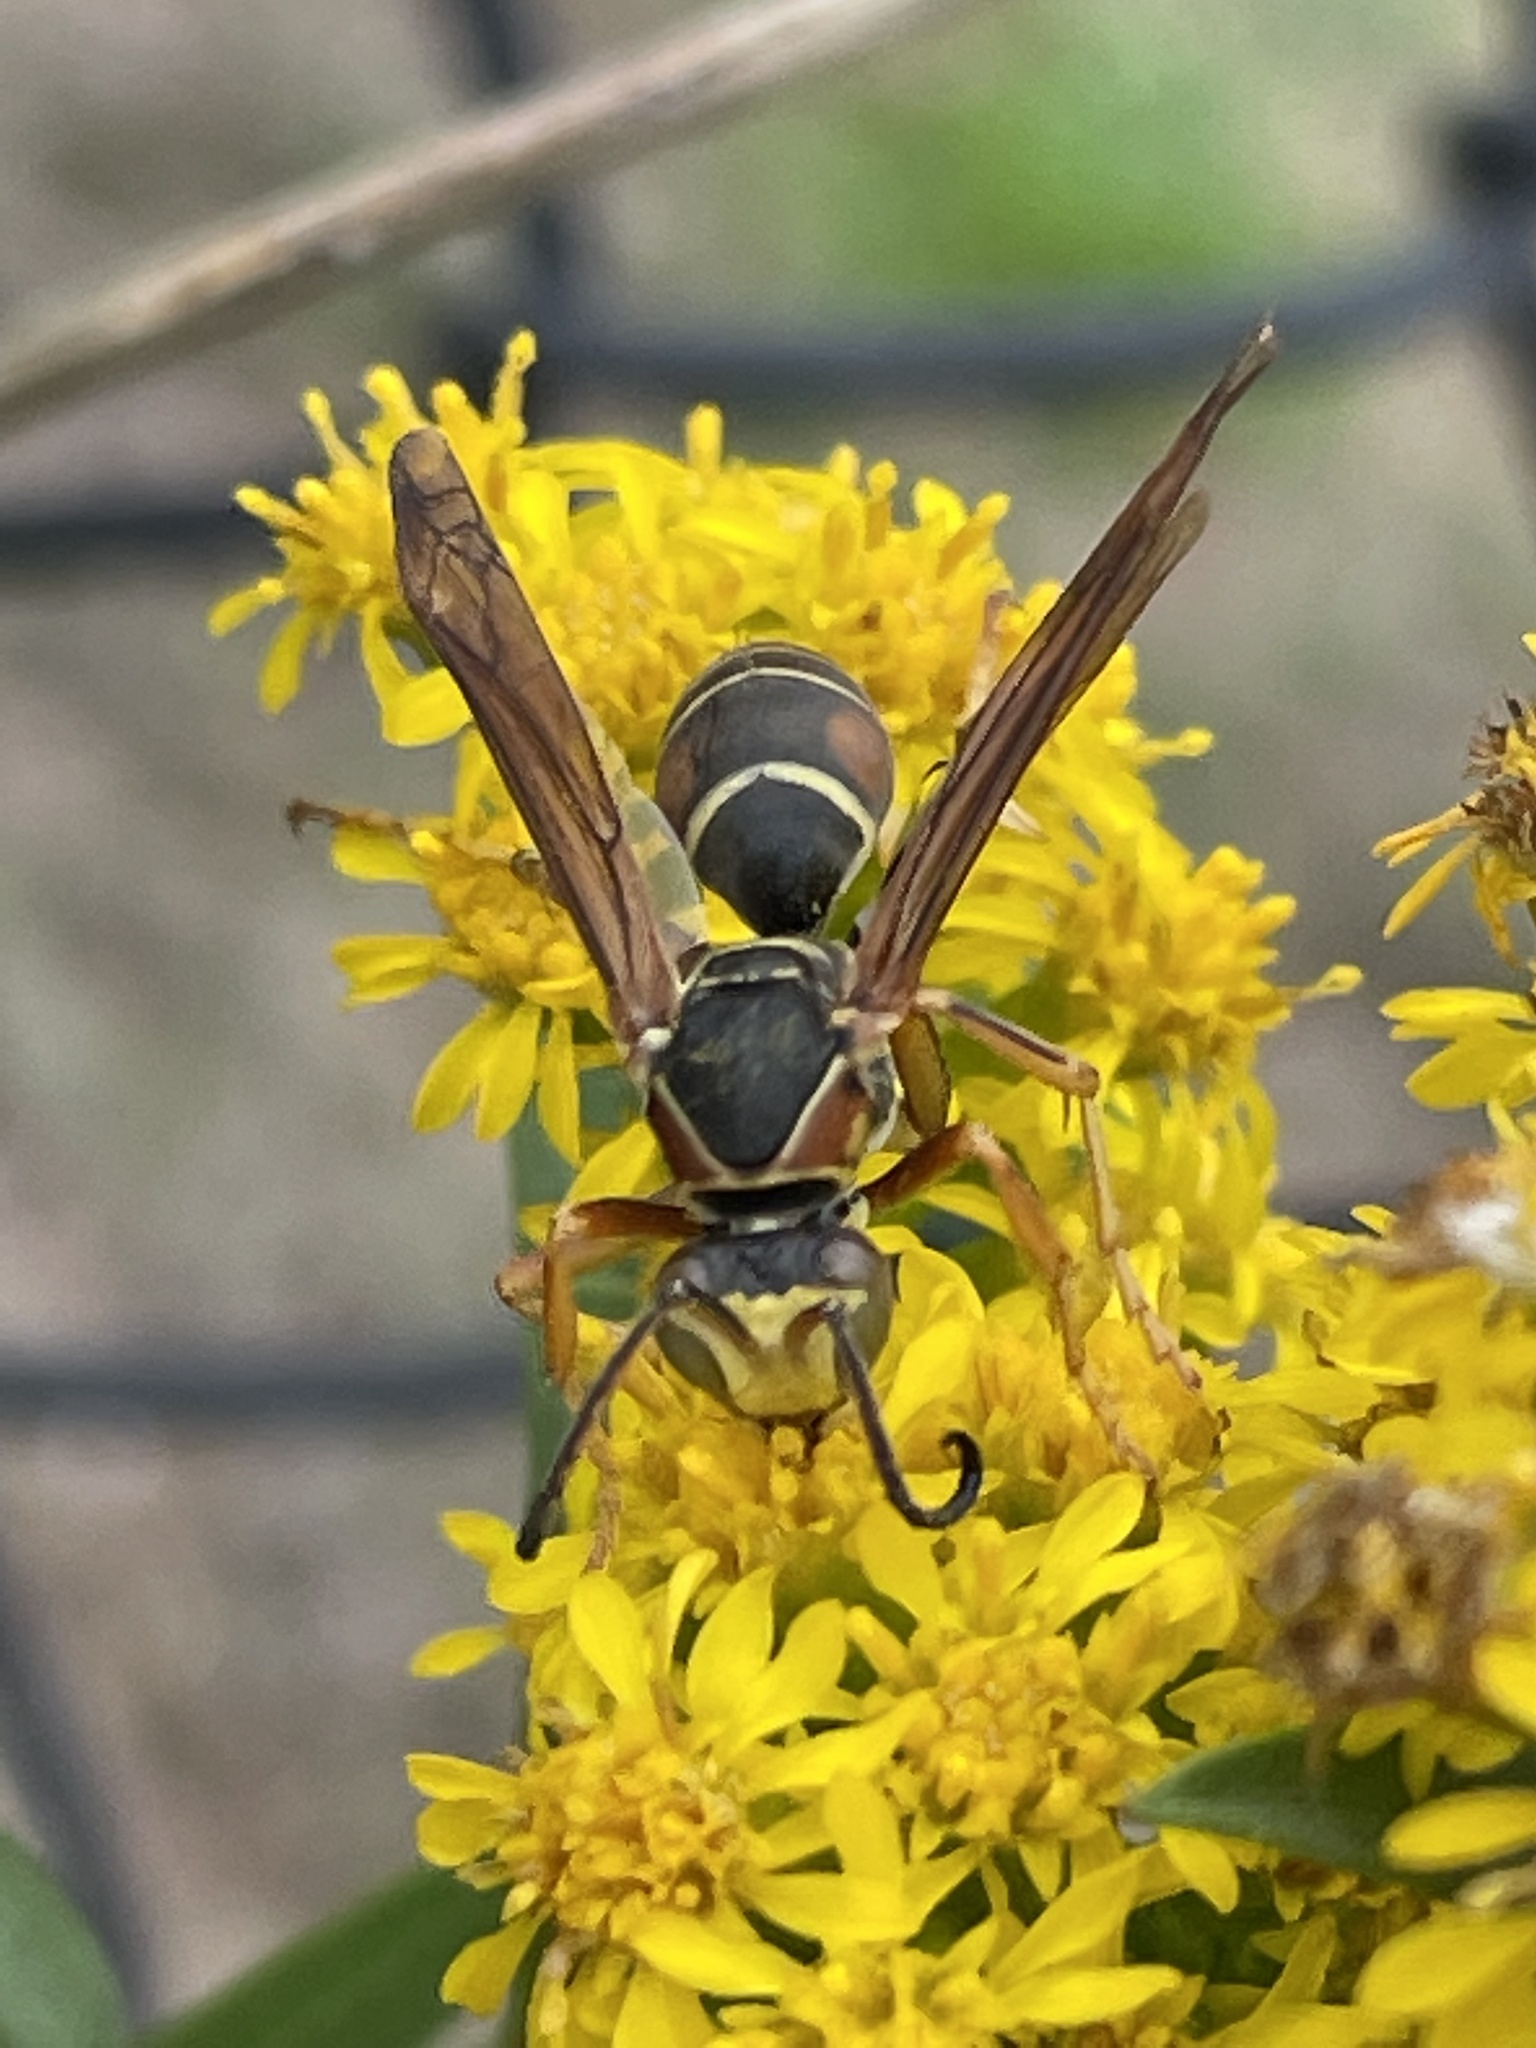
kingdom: Animalia
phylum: Arthropoda
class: Insecta
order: Hymenoptera
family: Eumenidae
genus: Polistes
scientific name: Polistes fuscatus
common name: Dark paper wasp
